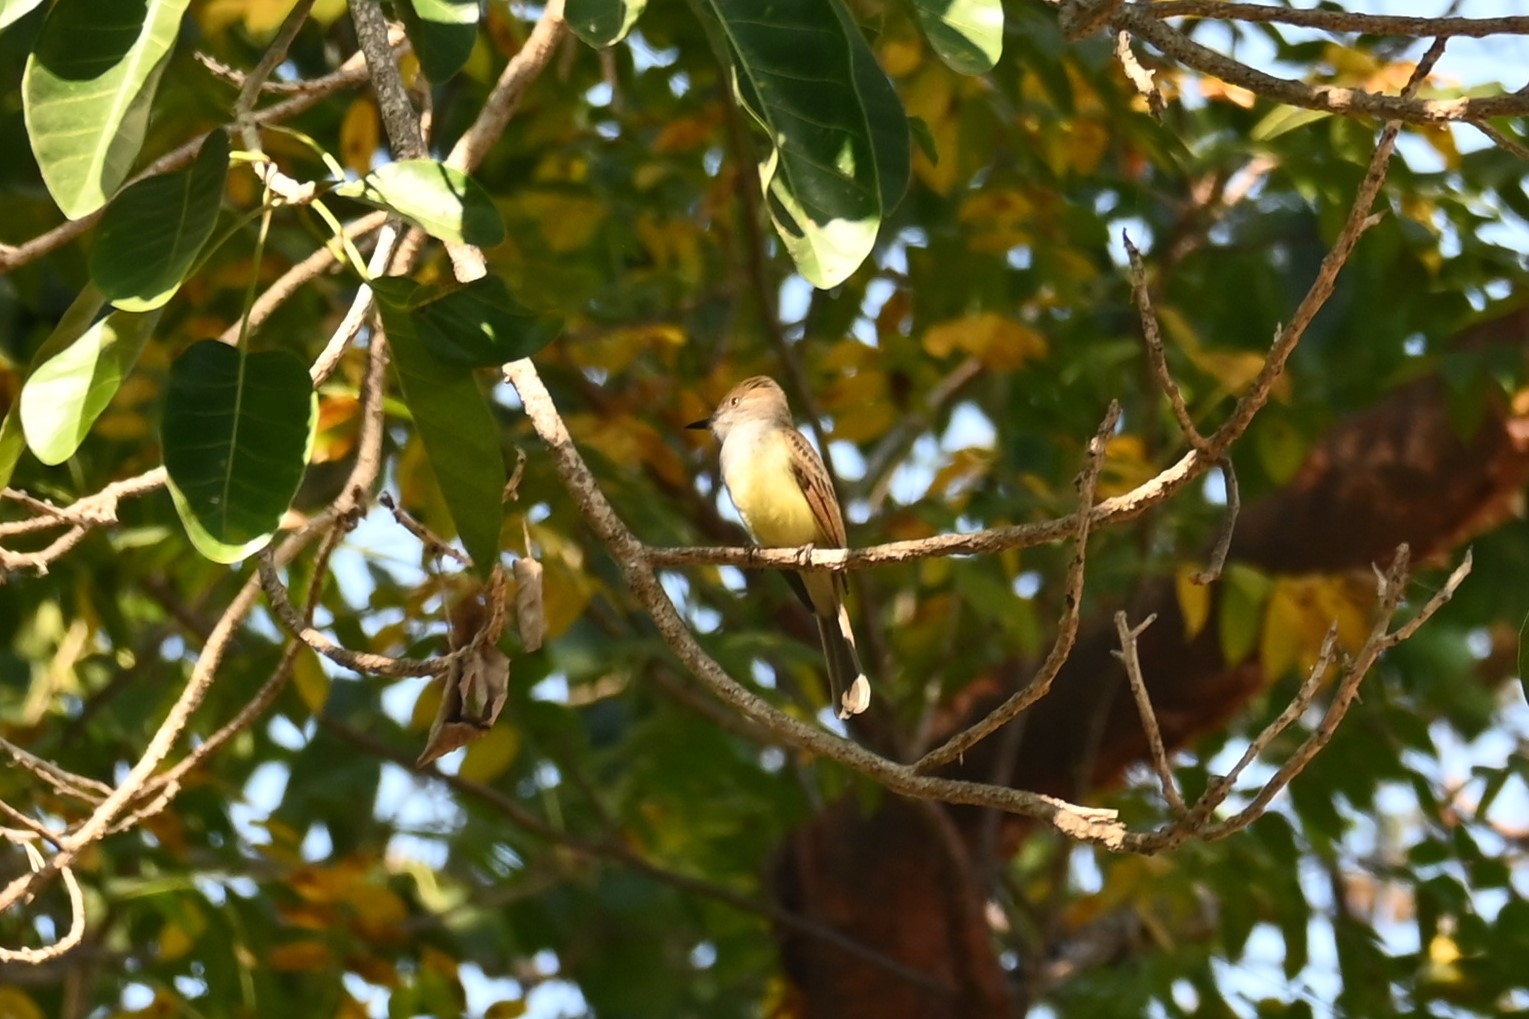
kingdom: Animalia
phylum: Chordata
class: Aves
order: Passeriformes
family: Tyrannidae
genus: Myiarchus
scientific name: Myiarchus tuberculifer
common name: Dusky-capped flycatcher
